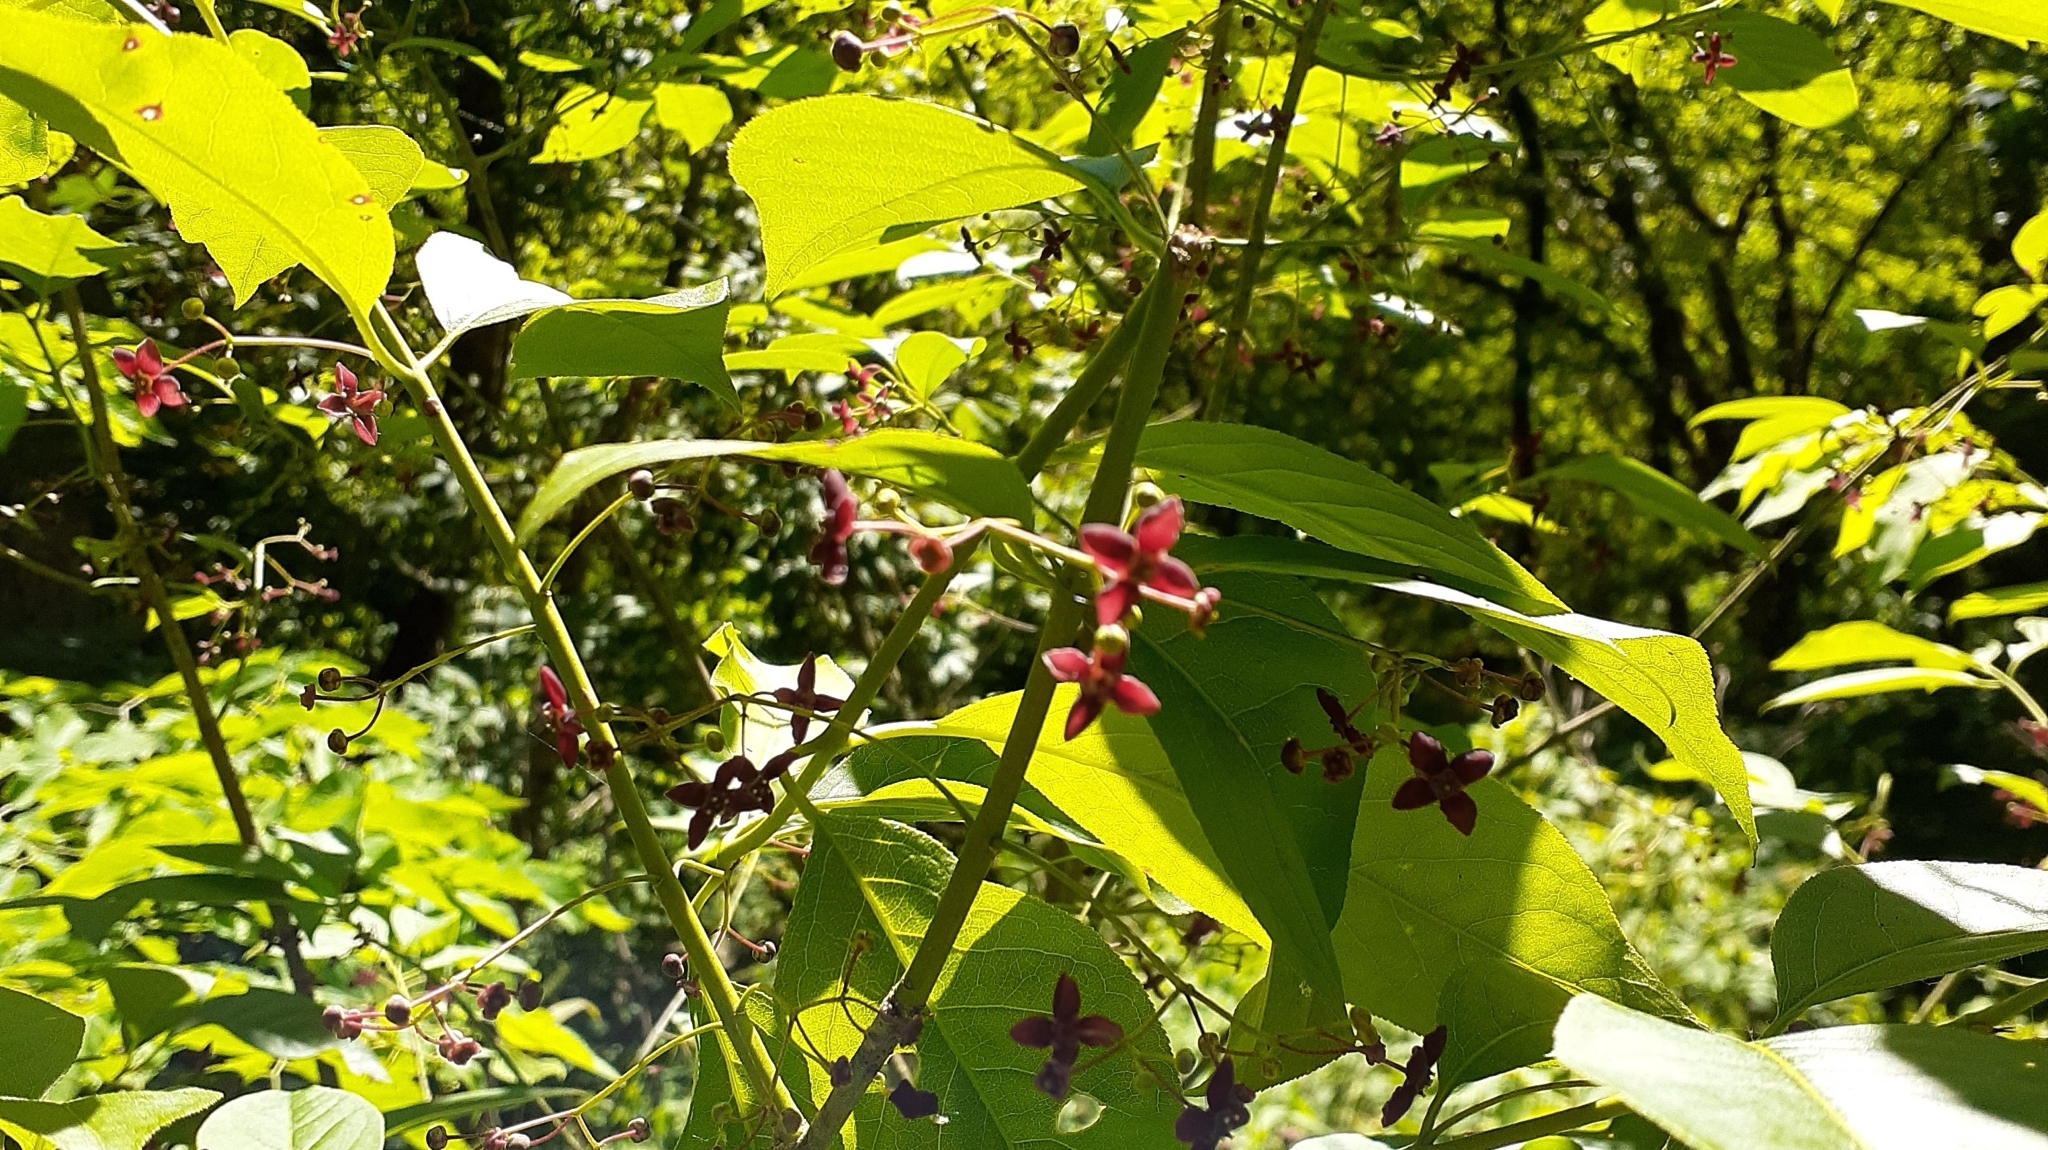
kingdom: Plantae
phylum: Tracheophyta
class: Magnoliopsida
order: Celastrales
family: Celastraceae
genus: Euonymus
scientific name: Euonymus atropurpureus
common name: Eastern wahoo
